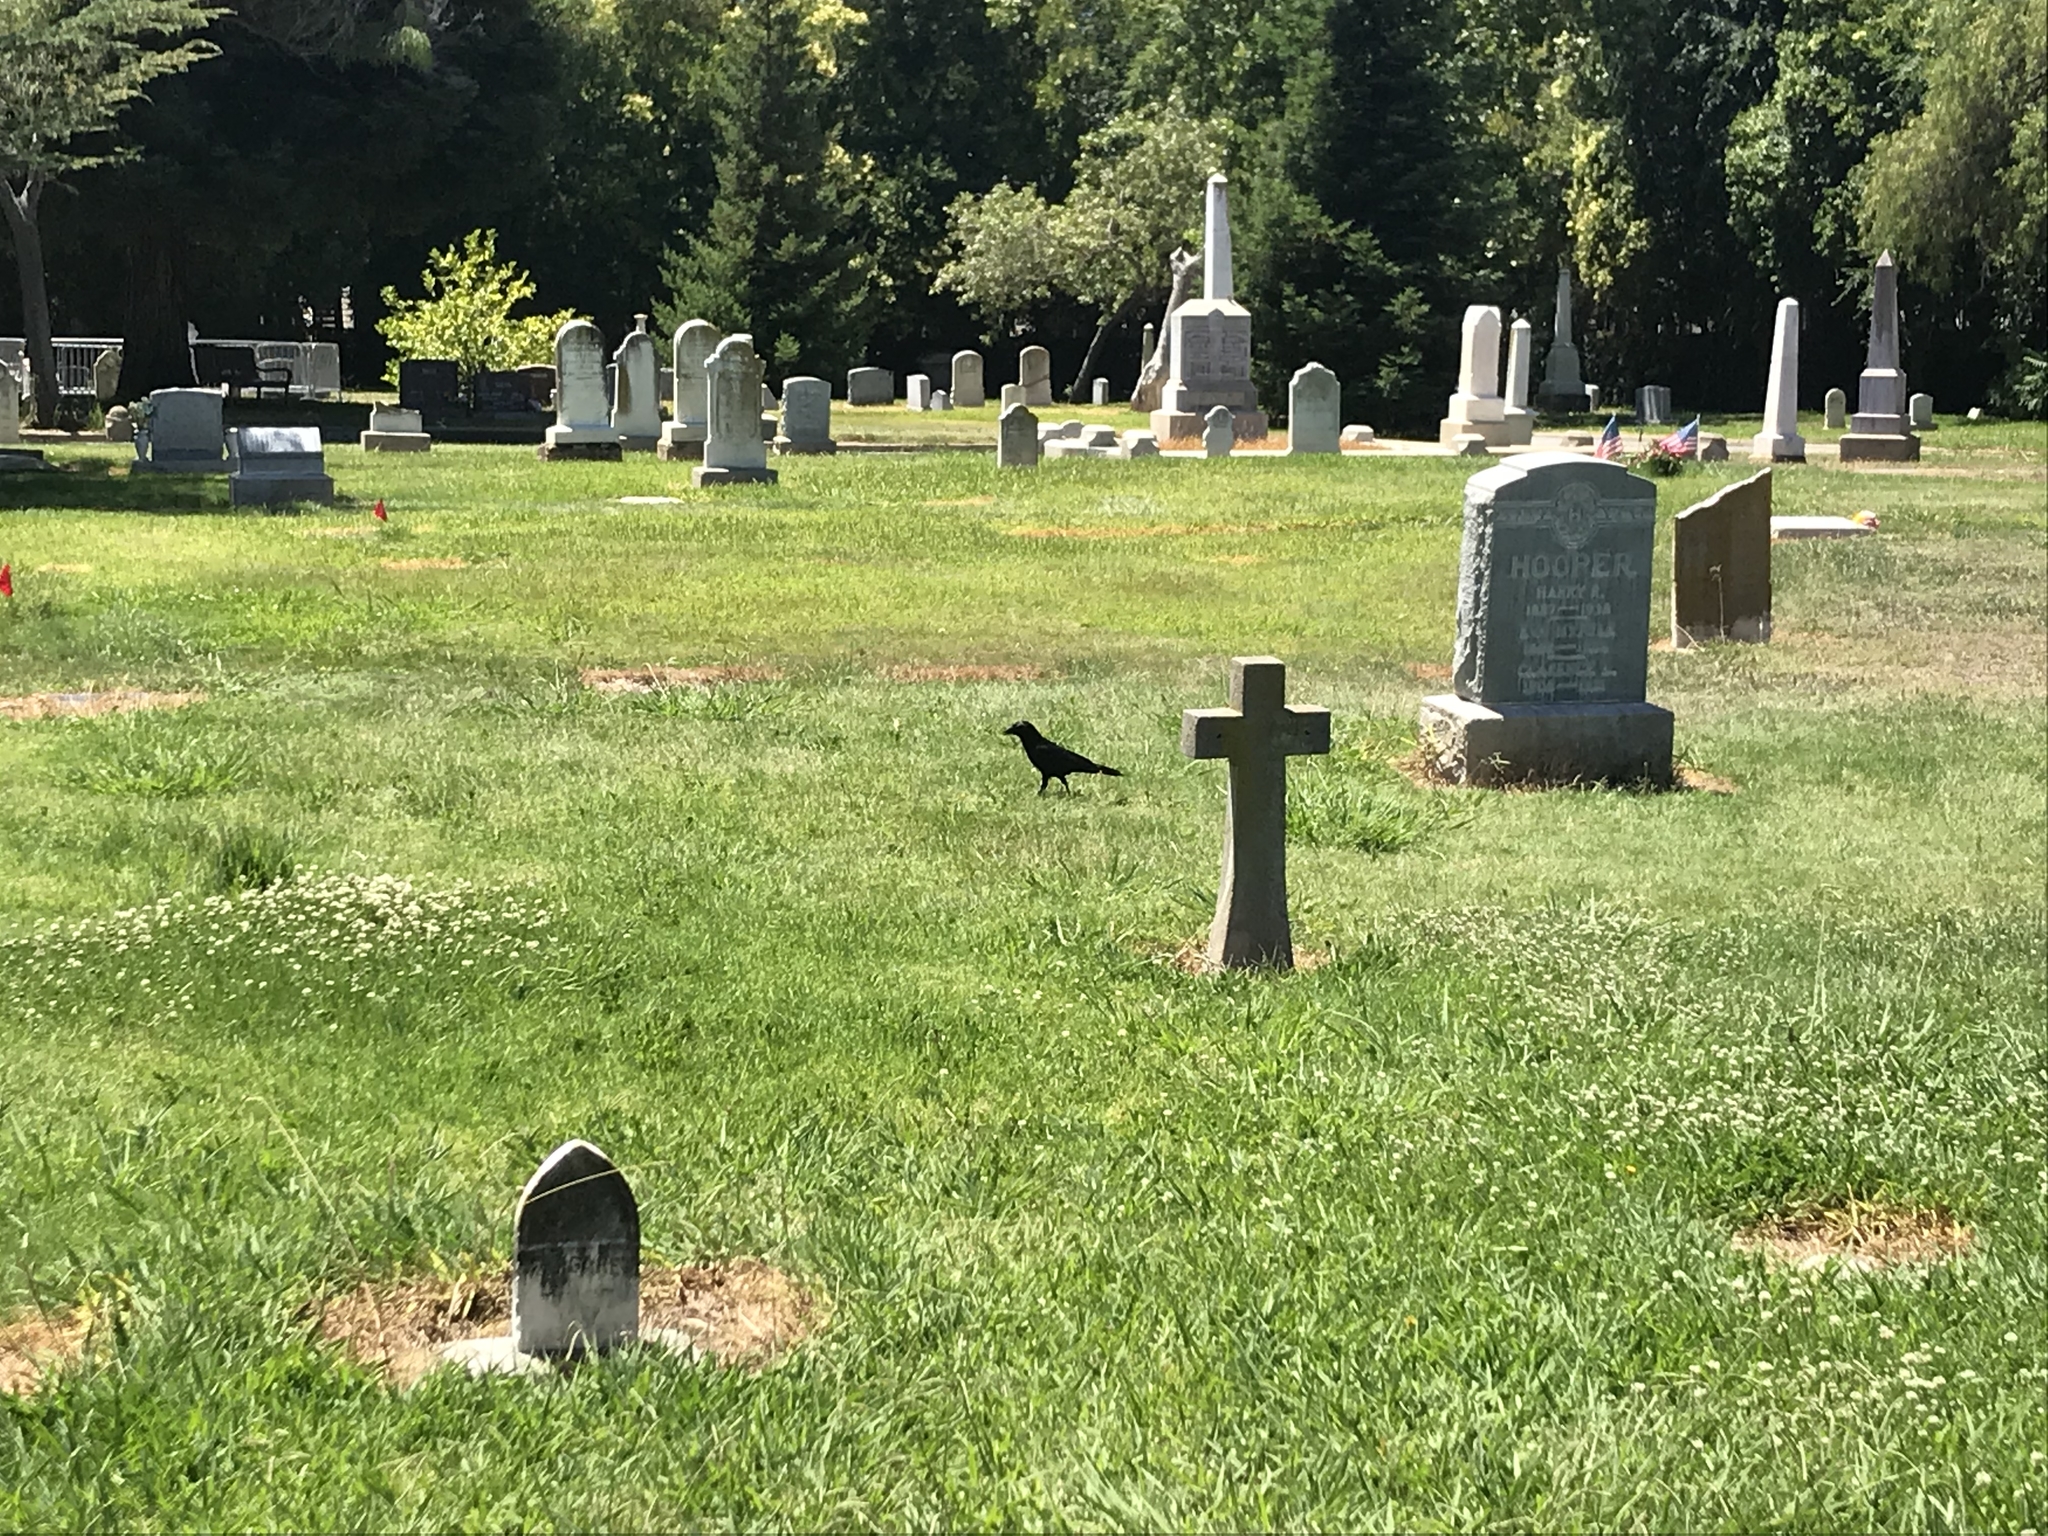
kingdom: Animalia
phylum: Chordata
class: Aves
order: Passeriformes
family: Corvidae
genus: Corvus
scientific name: Corvus brachyrhynchos
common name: American crow
